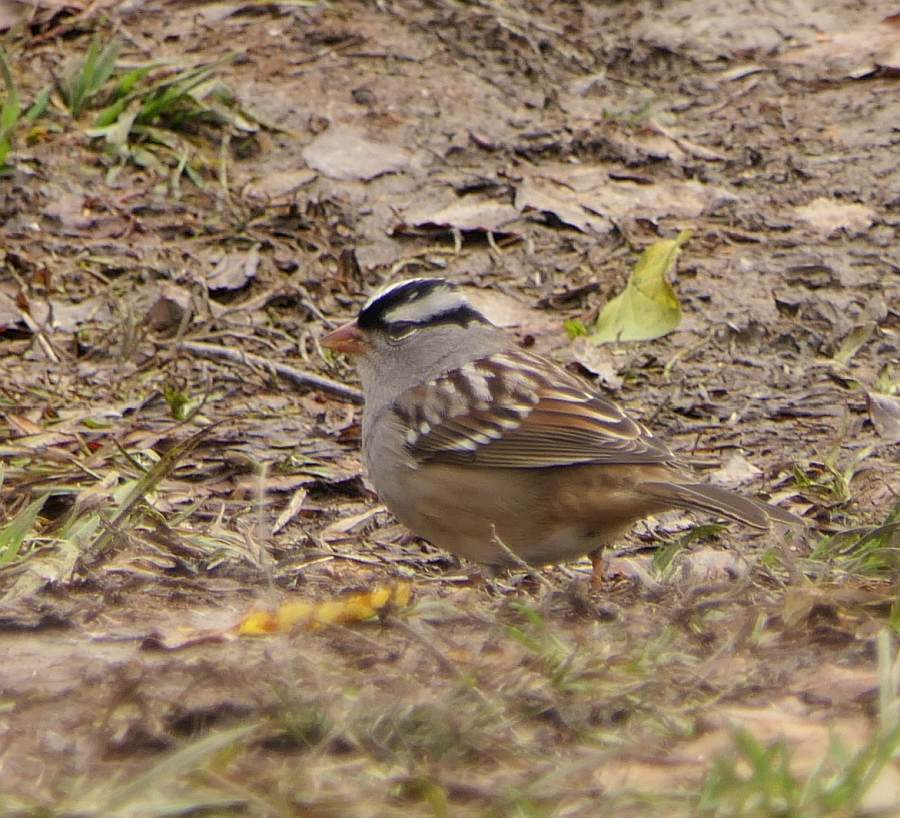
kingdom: Animalia
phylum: Chordata
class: Aves
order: Passeriformes
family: Passerellidae
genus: Zonotrichia
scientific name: Zonotrichia leucophrys
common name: White-crowned sparrow
